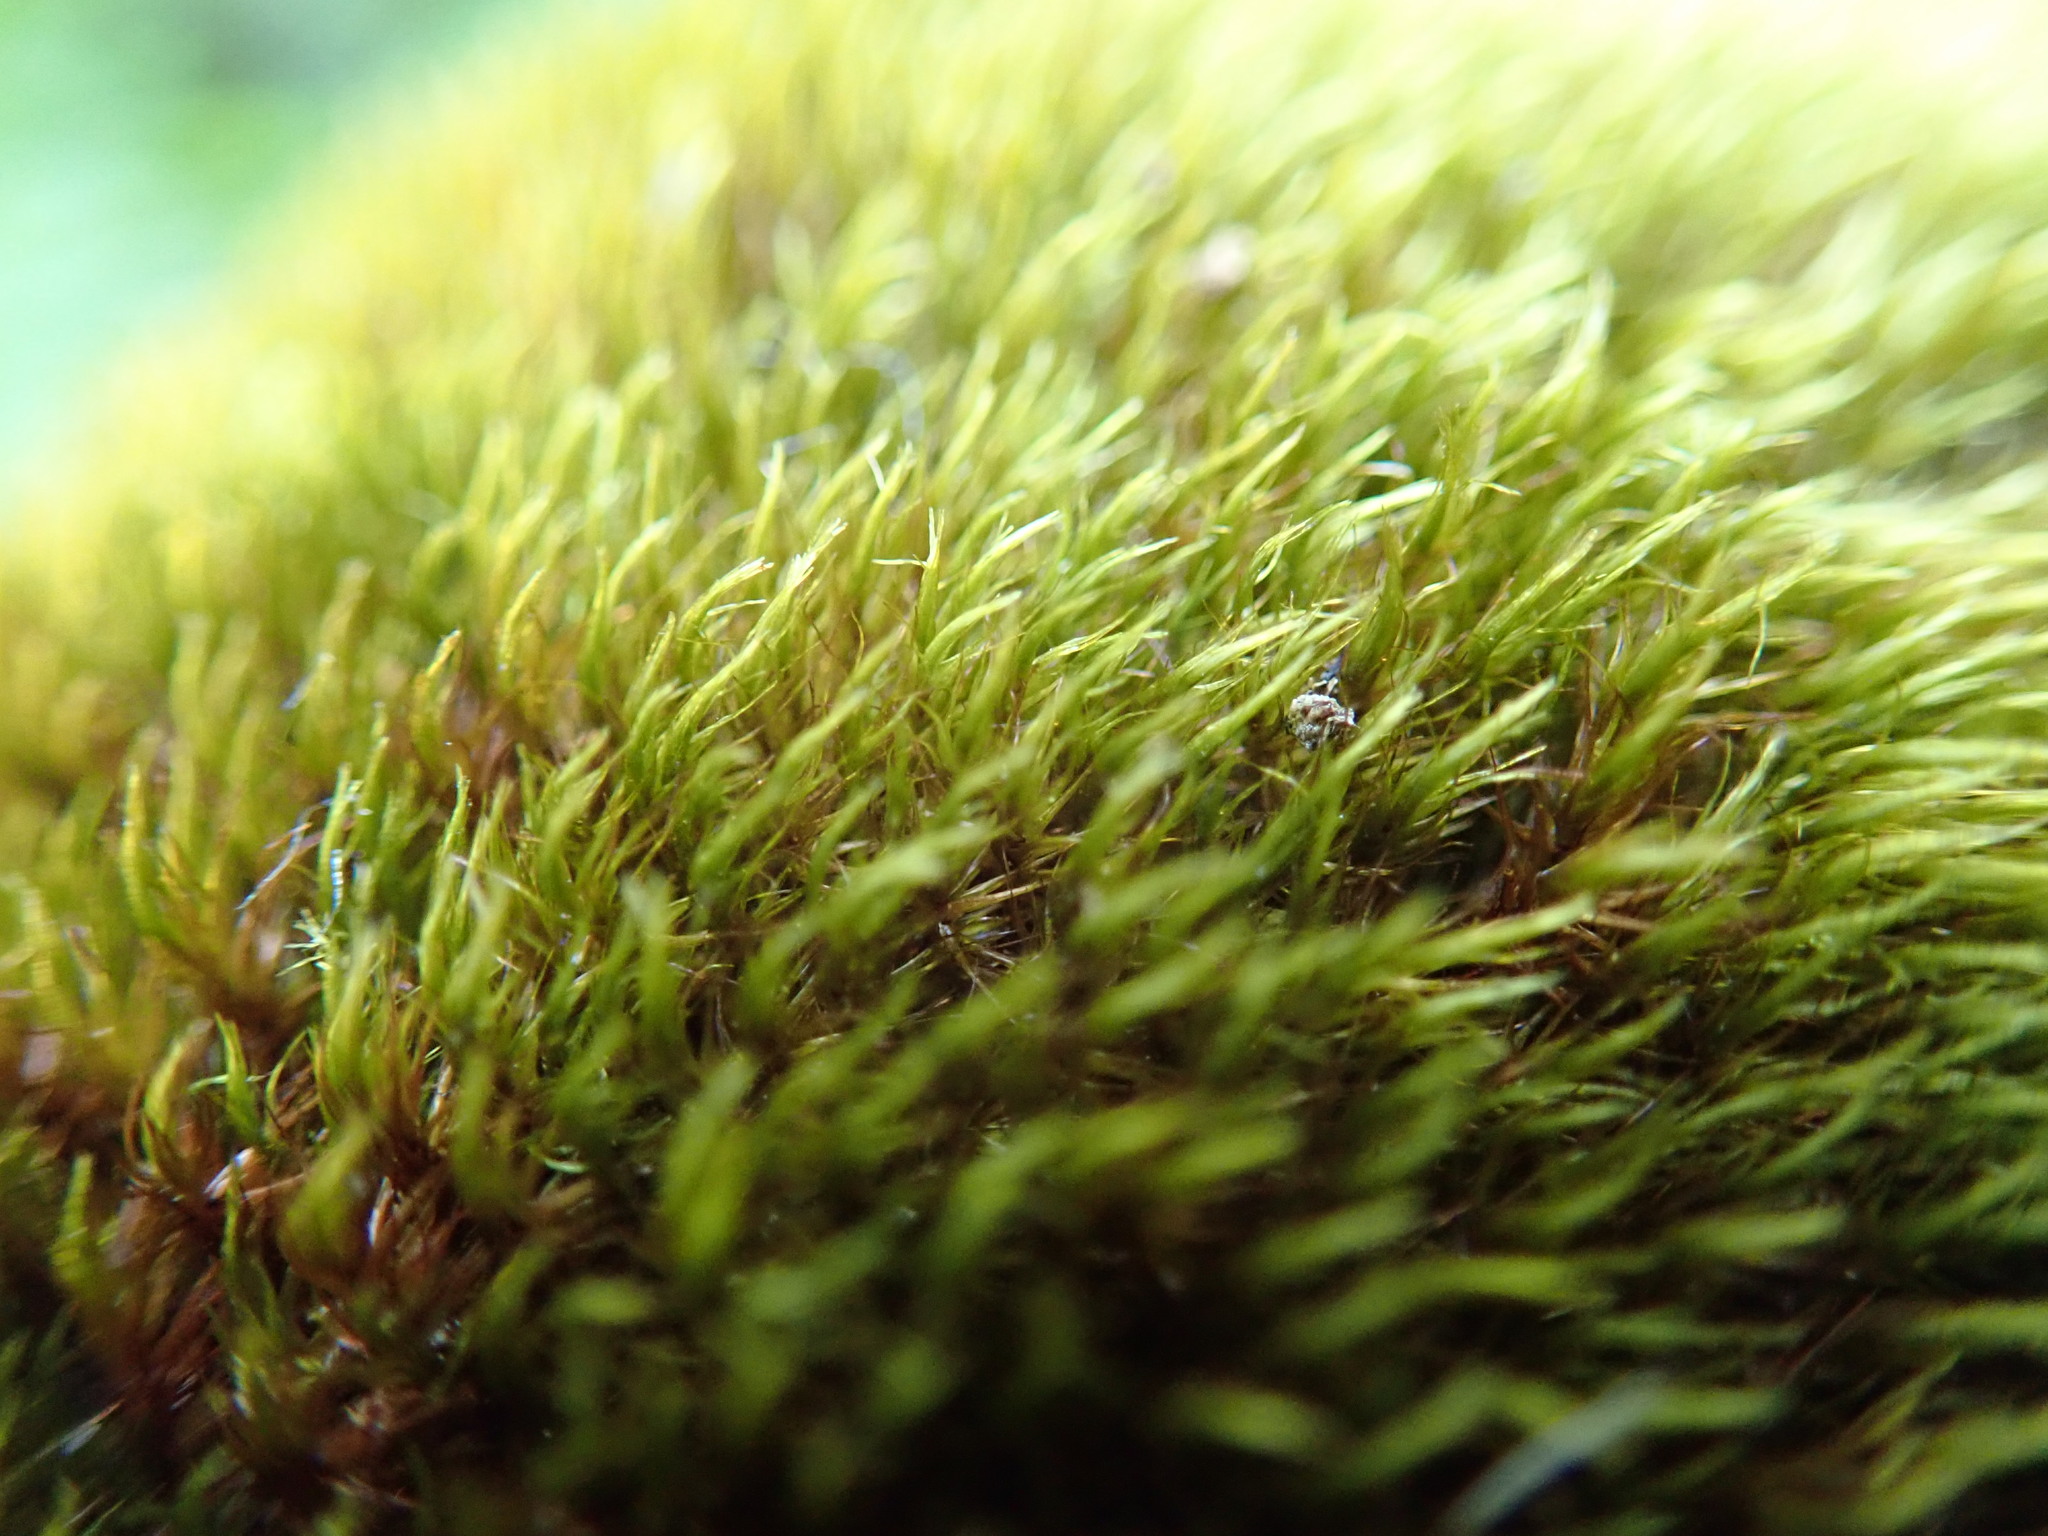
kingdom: Plantae
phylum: Bryophyta
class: Bryopsida
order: Grimmiales
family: Seligeriaceae
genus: Blindia
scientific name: Blindia acuta
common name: Sharp-leaved blind's moss
